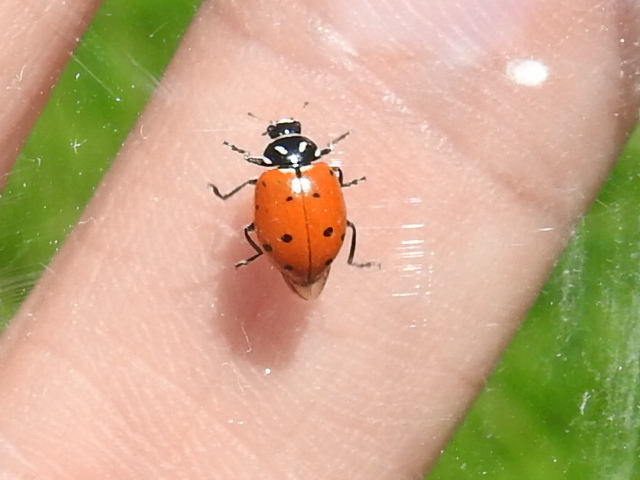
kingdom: Animalia
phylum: Arthropoda
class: Insecta
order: Coleoptera
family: Coccinellidae
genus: Hippodamia
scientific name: Hippodamia convergens
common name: Convergent lady beetle
